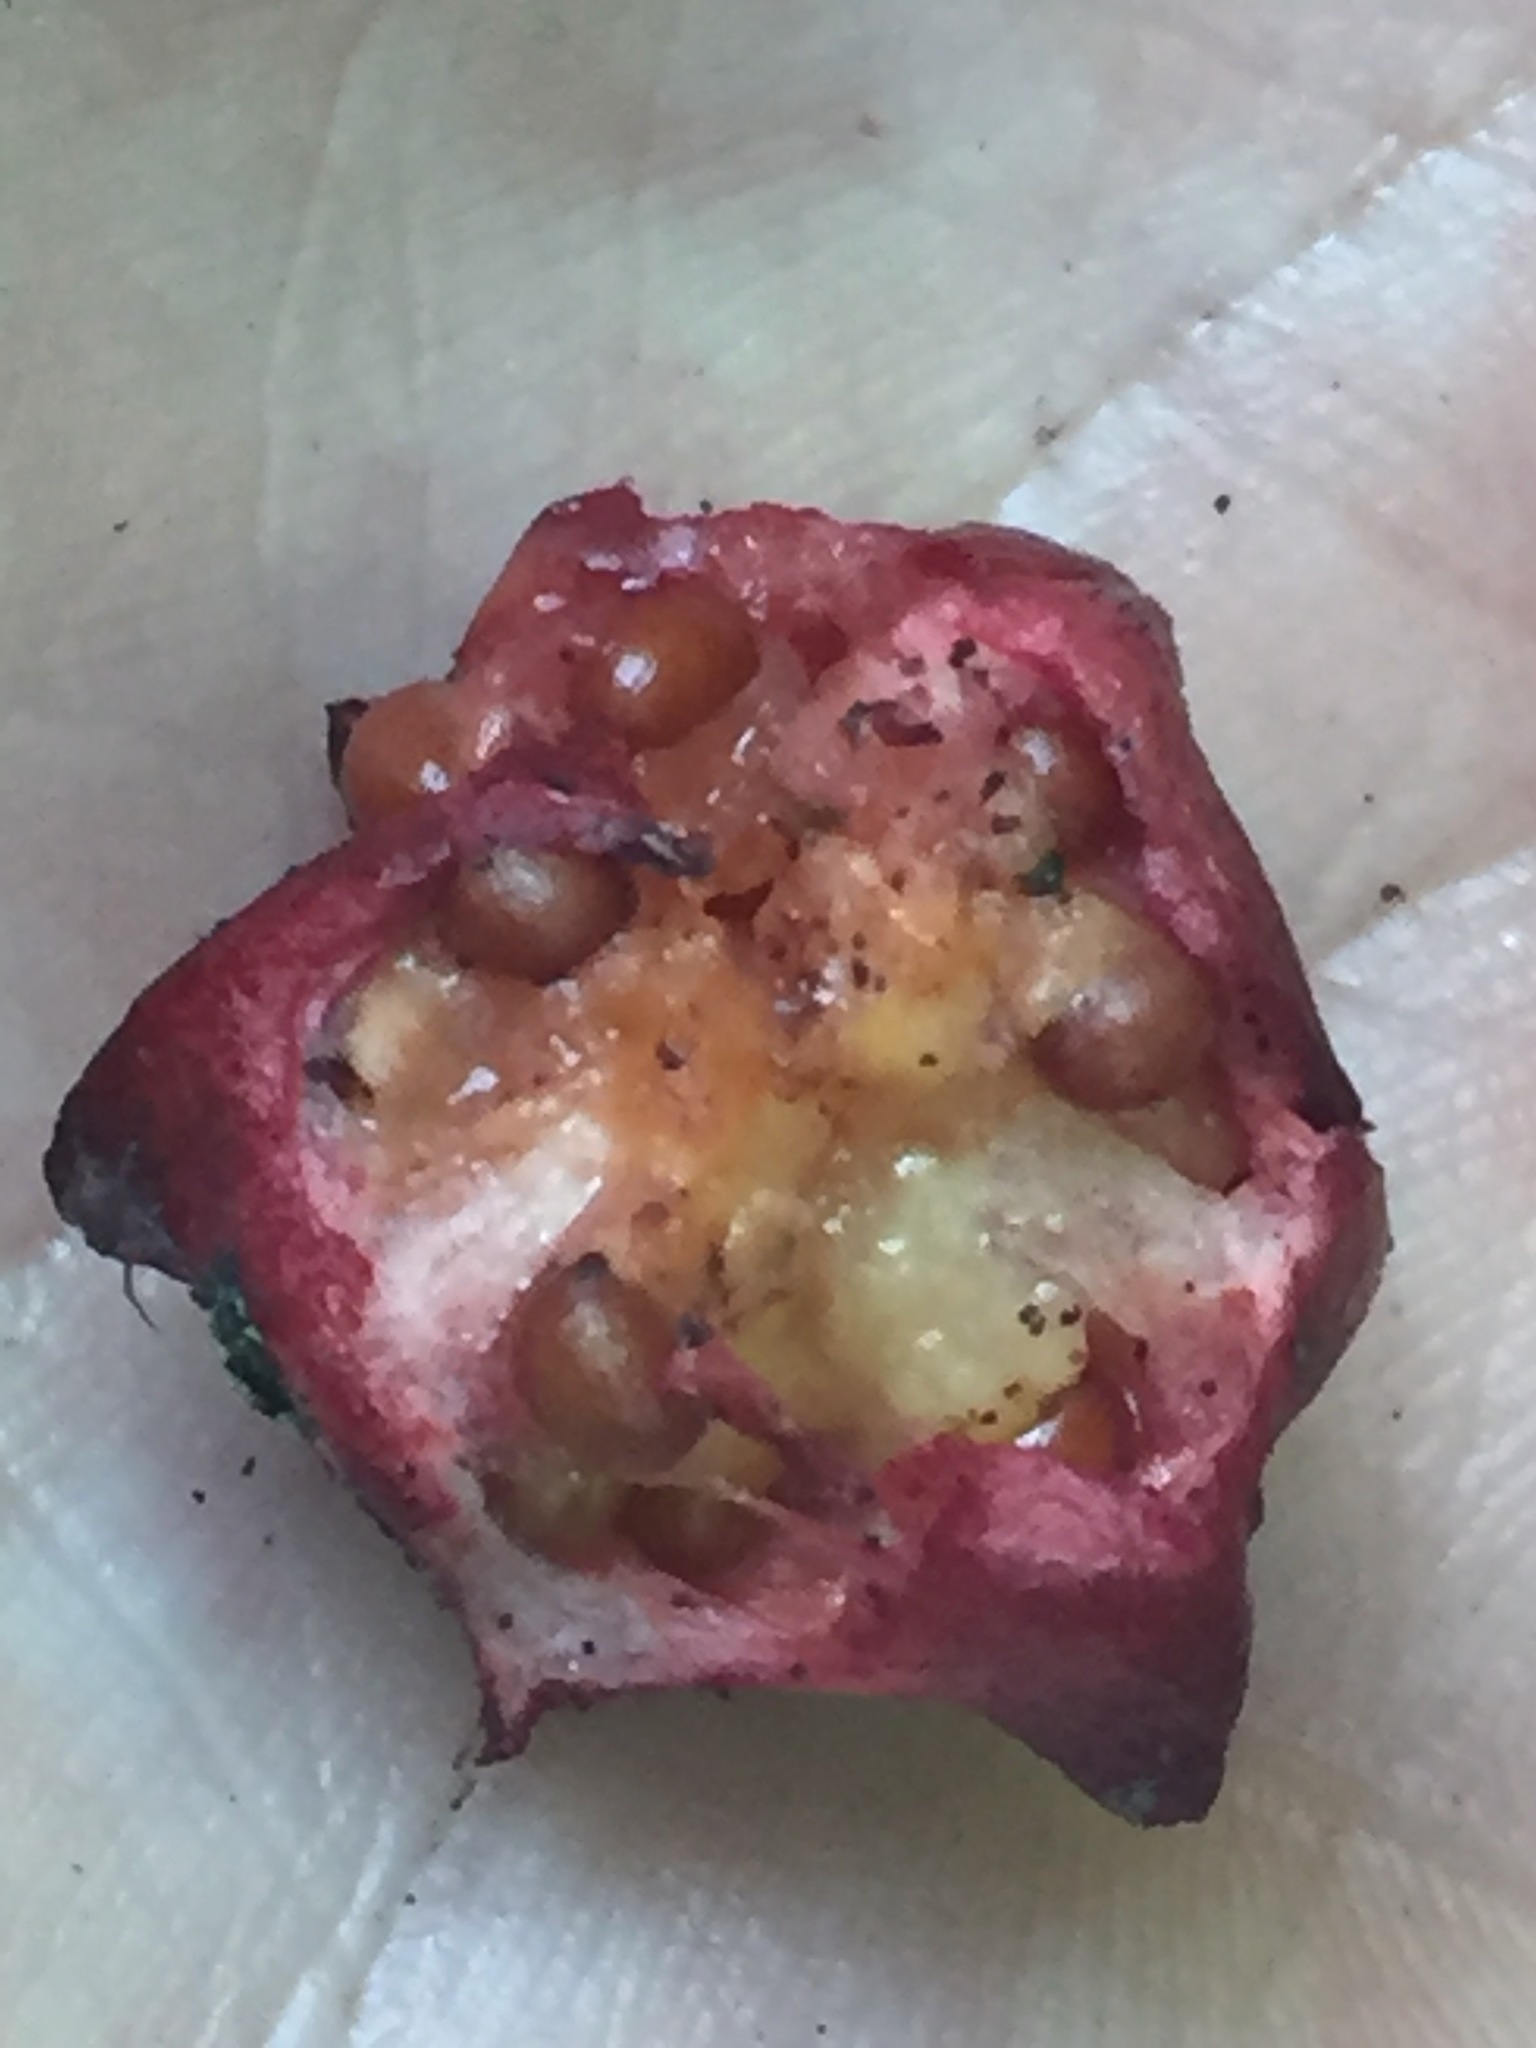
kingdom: Plantae
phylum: Tracheophyta
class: Liliopsida
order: Liliales
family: Melanthiaceae
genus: Trillium
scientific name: Trillium erectum
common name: Purple trillium
